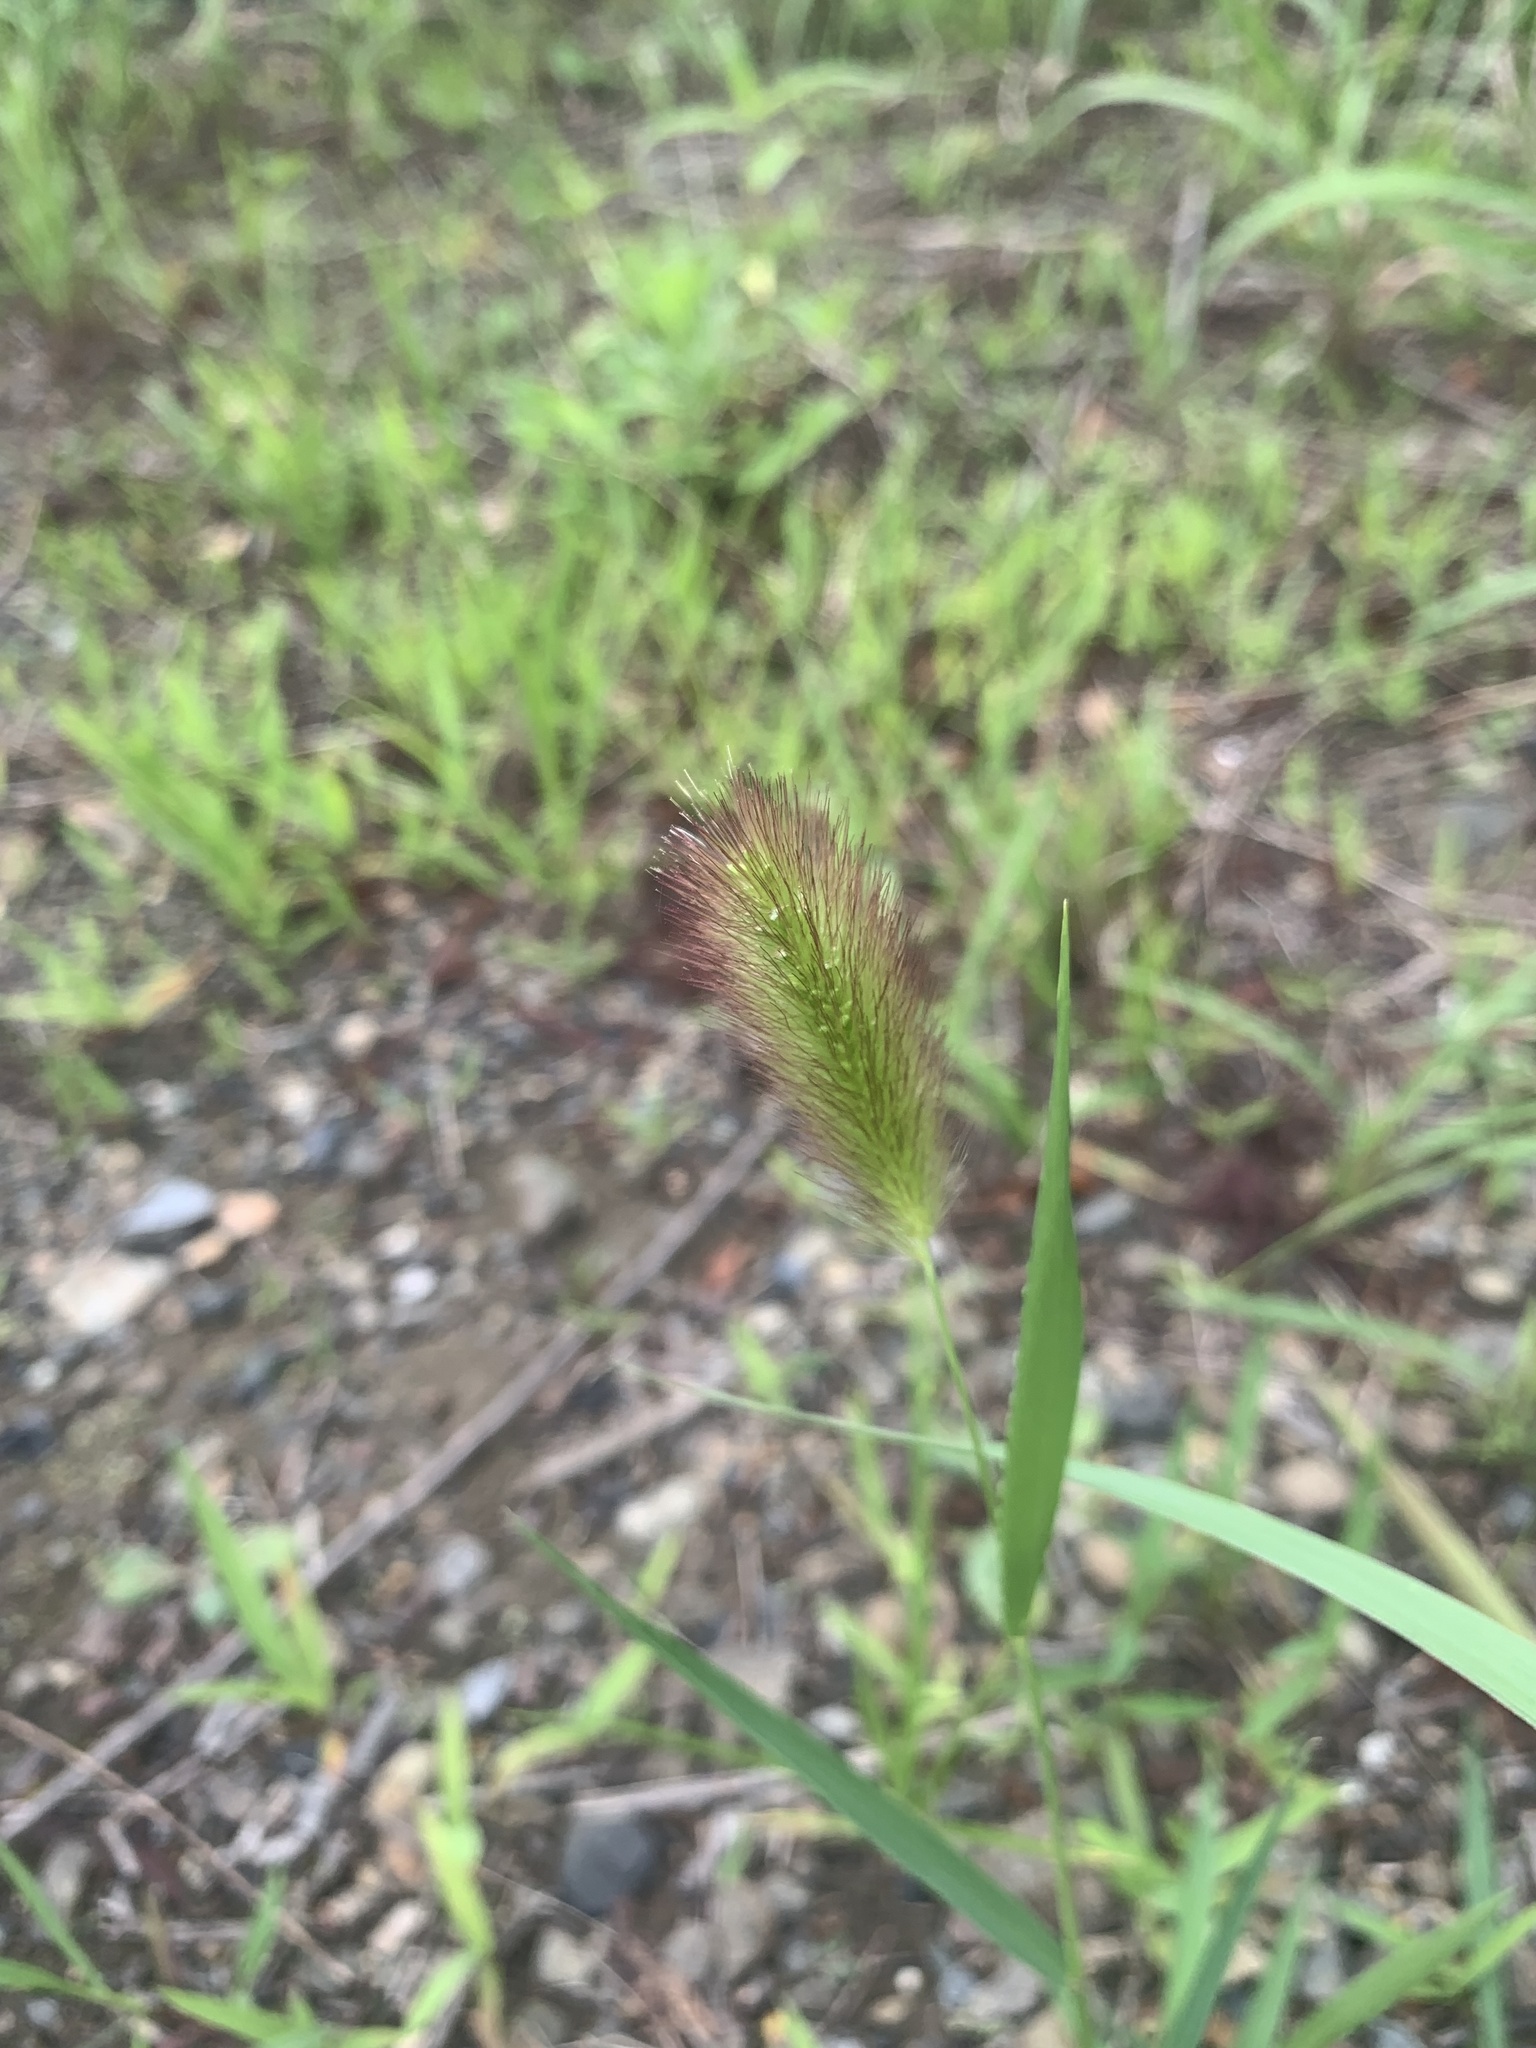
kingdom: Plantae
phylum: Tracheophyta
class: Liliopsida
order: Poales
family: Poaceae
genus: Setaria
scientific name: Setaria viridis
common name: Green bristlegrass
